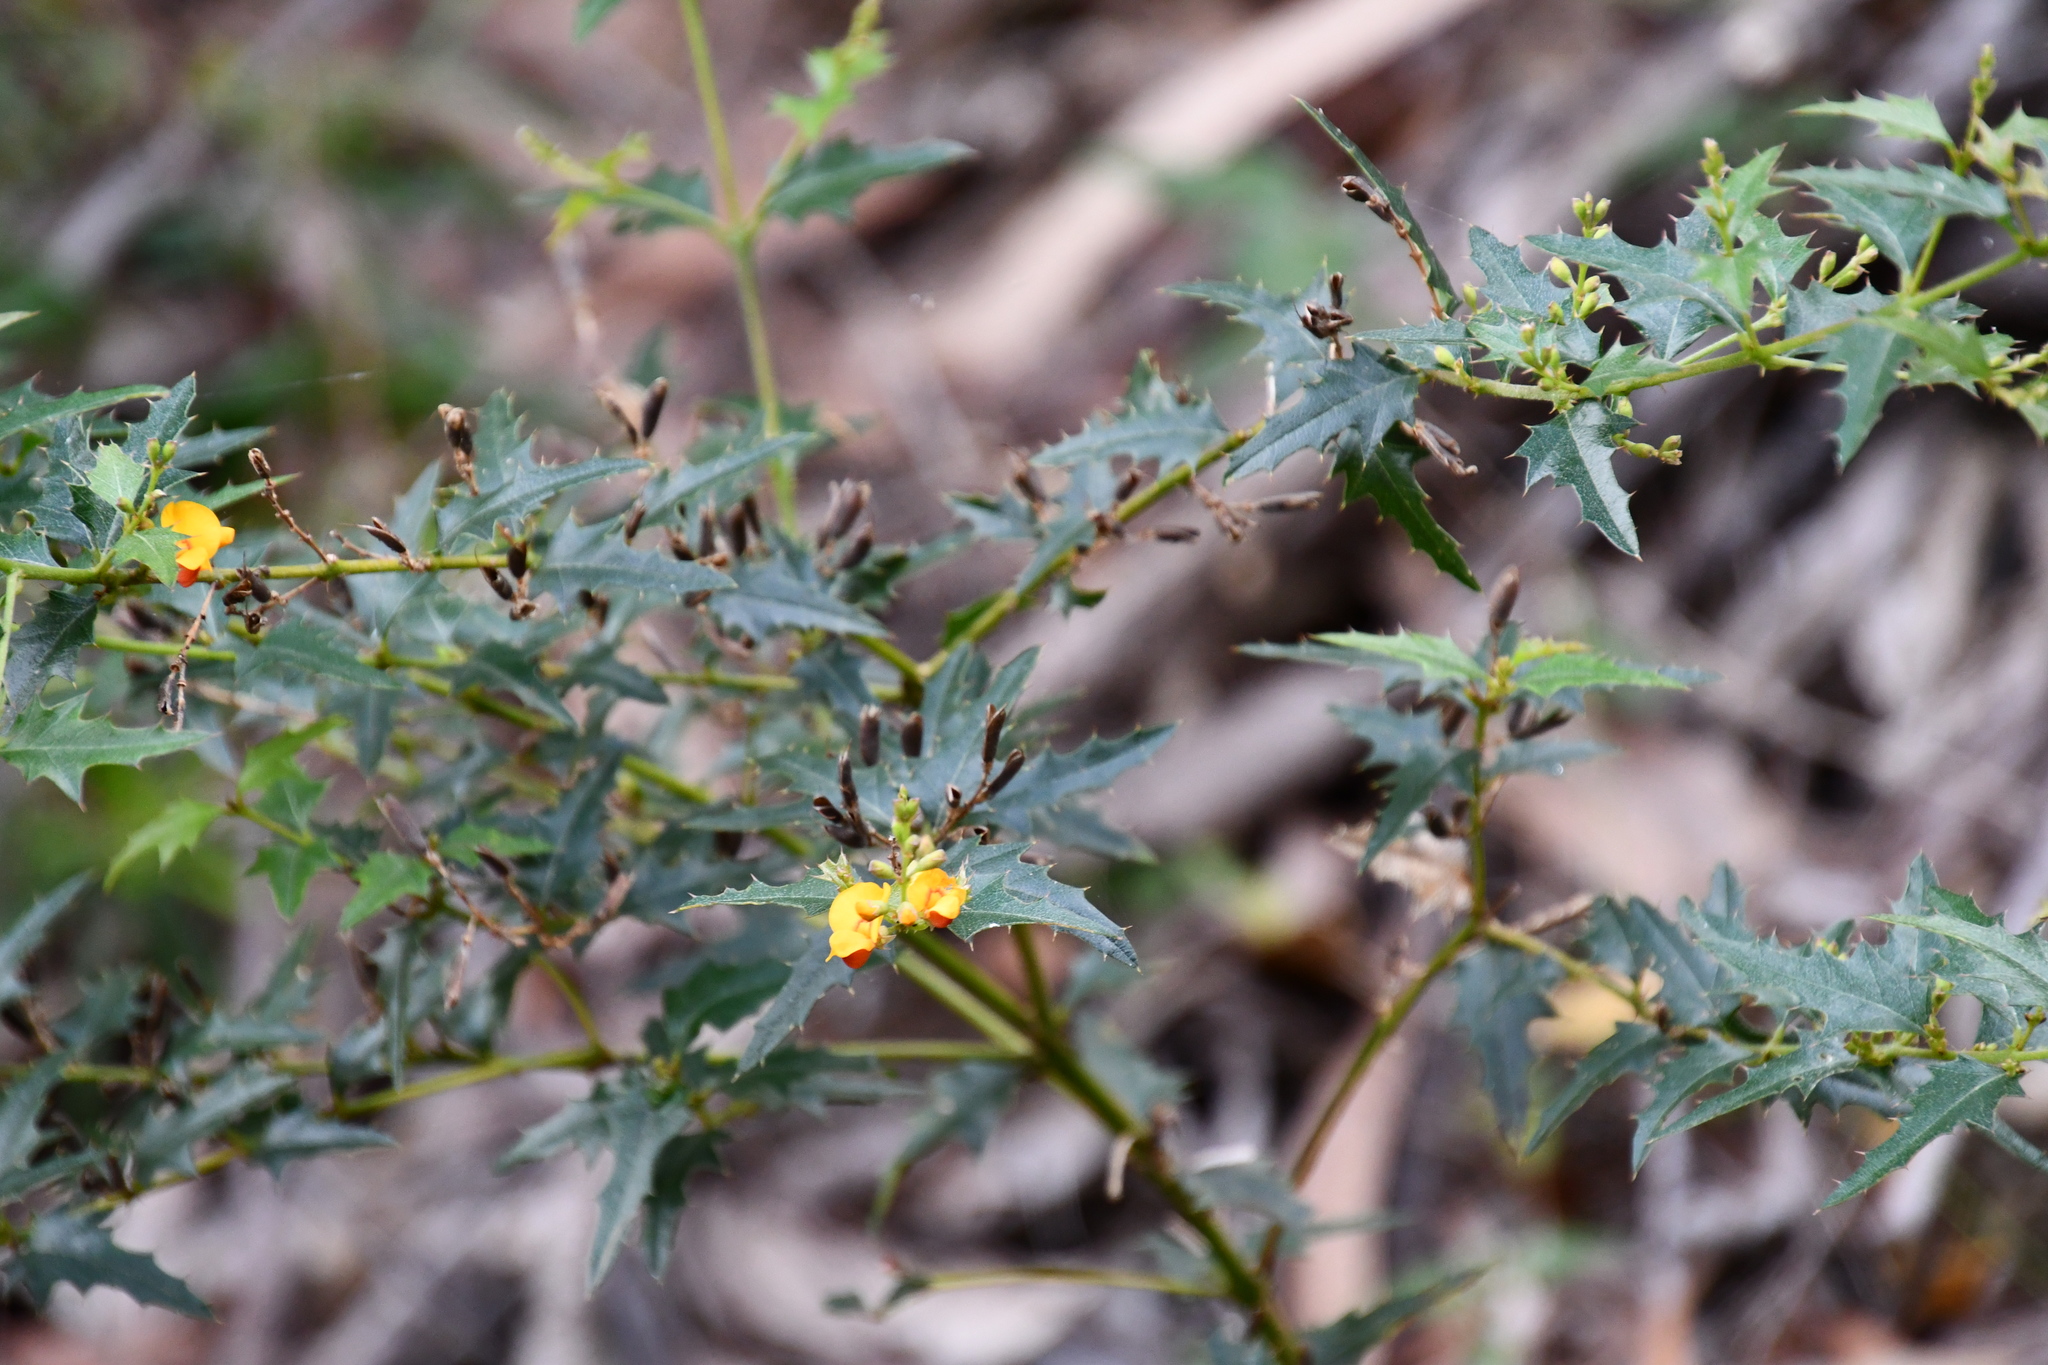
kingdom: Plantae
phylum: Tracheophyta
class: Magnoliopsida
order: Fabales
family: Fabaceae
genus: Podolobium
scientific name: Podolobium ilicifolium
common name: Native holly
